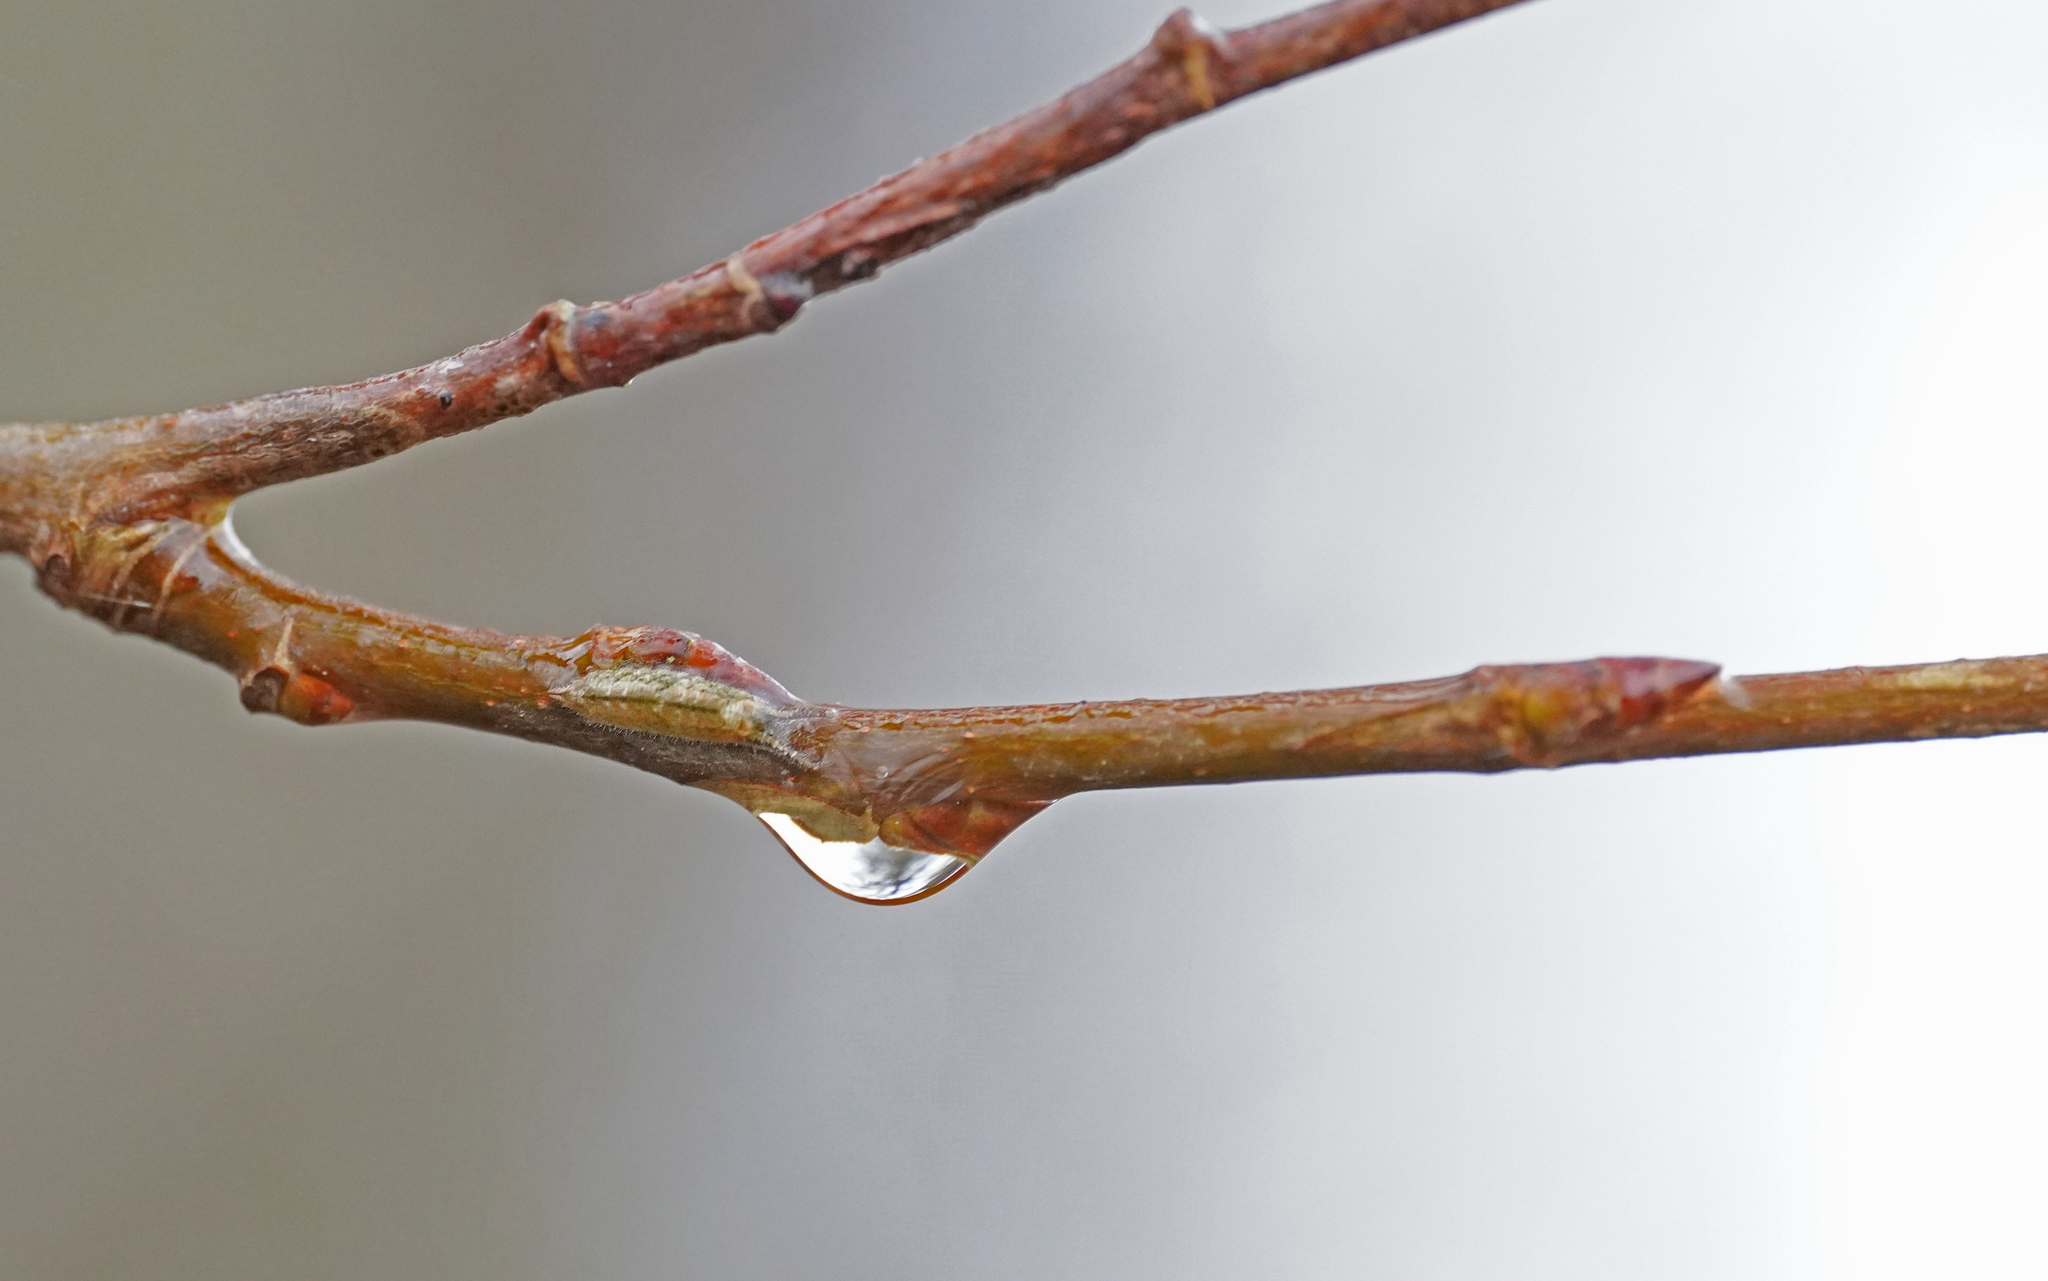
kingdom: Animalia
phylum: Arthropoda
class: Insecta
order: Lepidoptera
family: Nymphalidae
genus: Apatura
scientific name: Apatura ilia
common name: Lesser purple emperor
